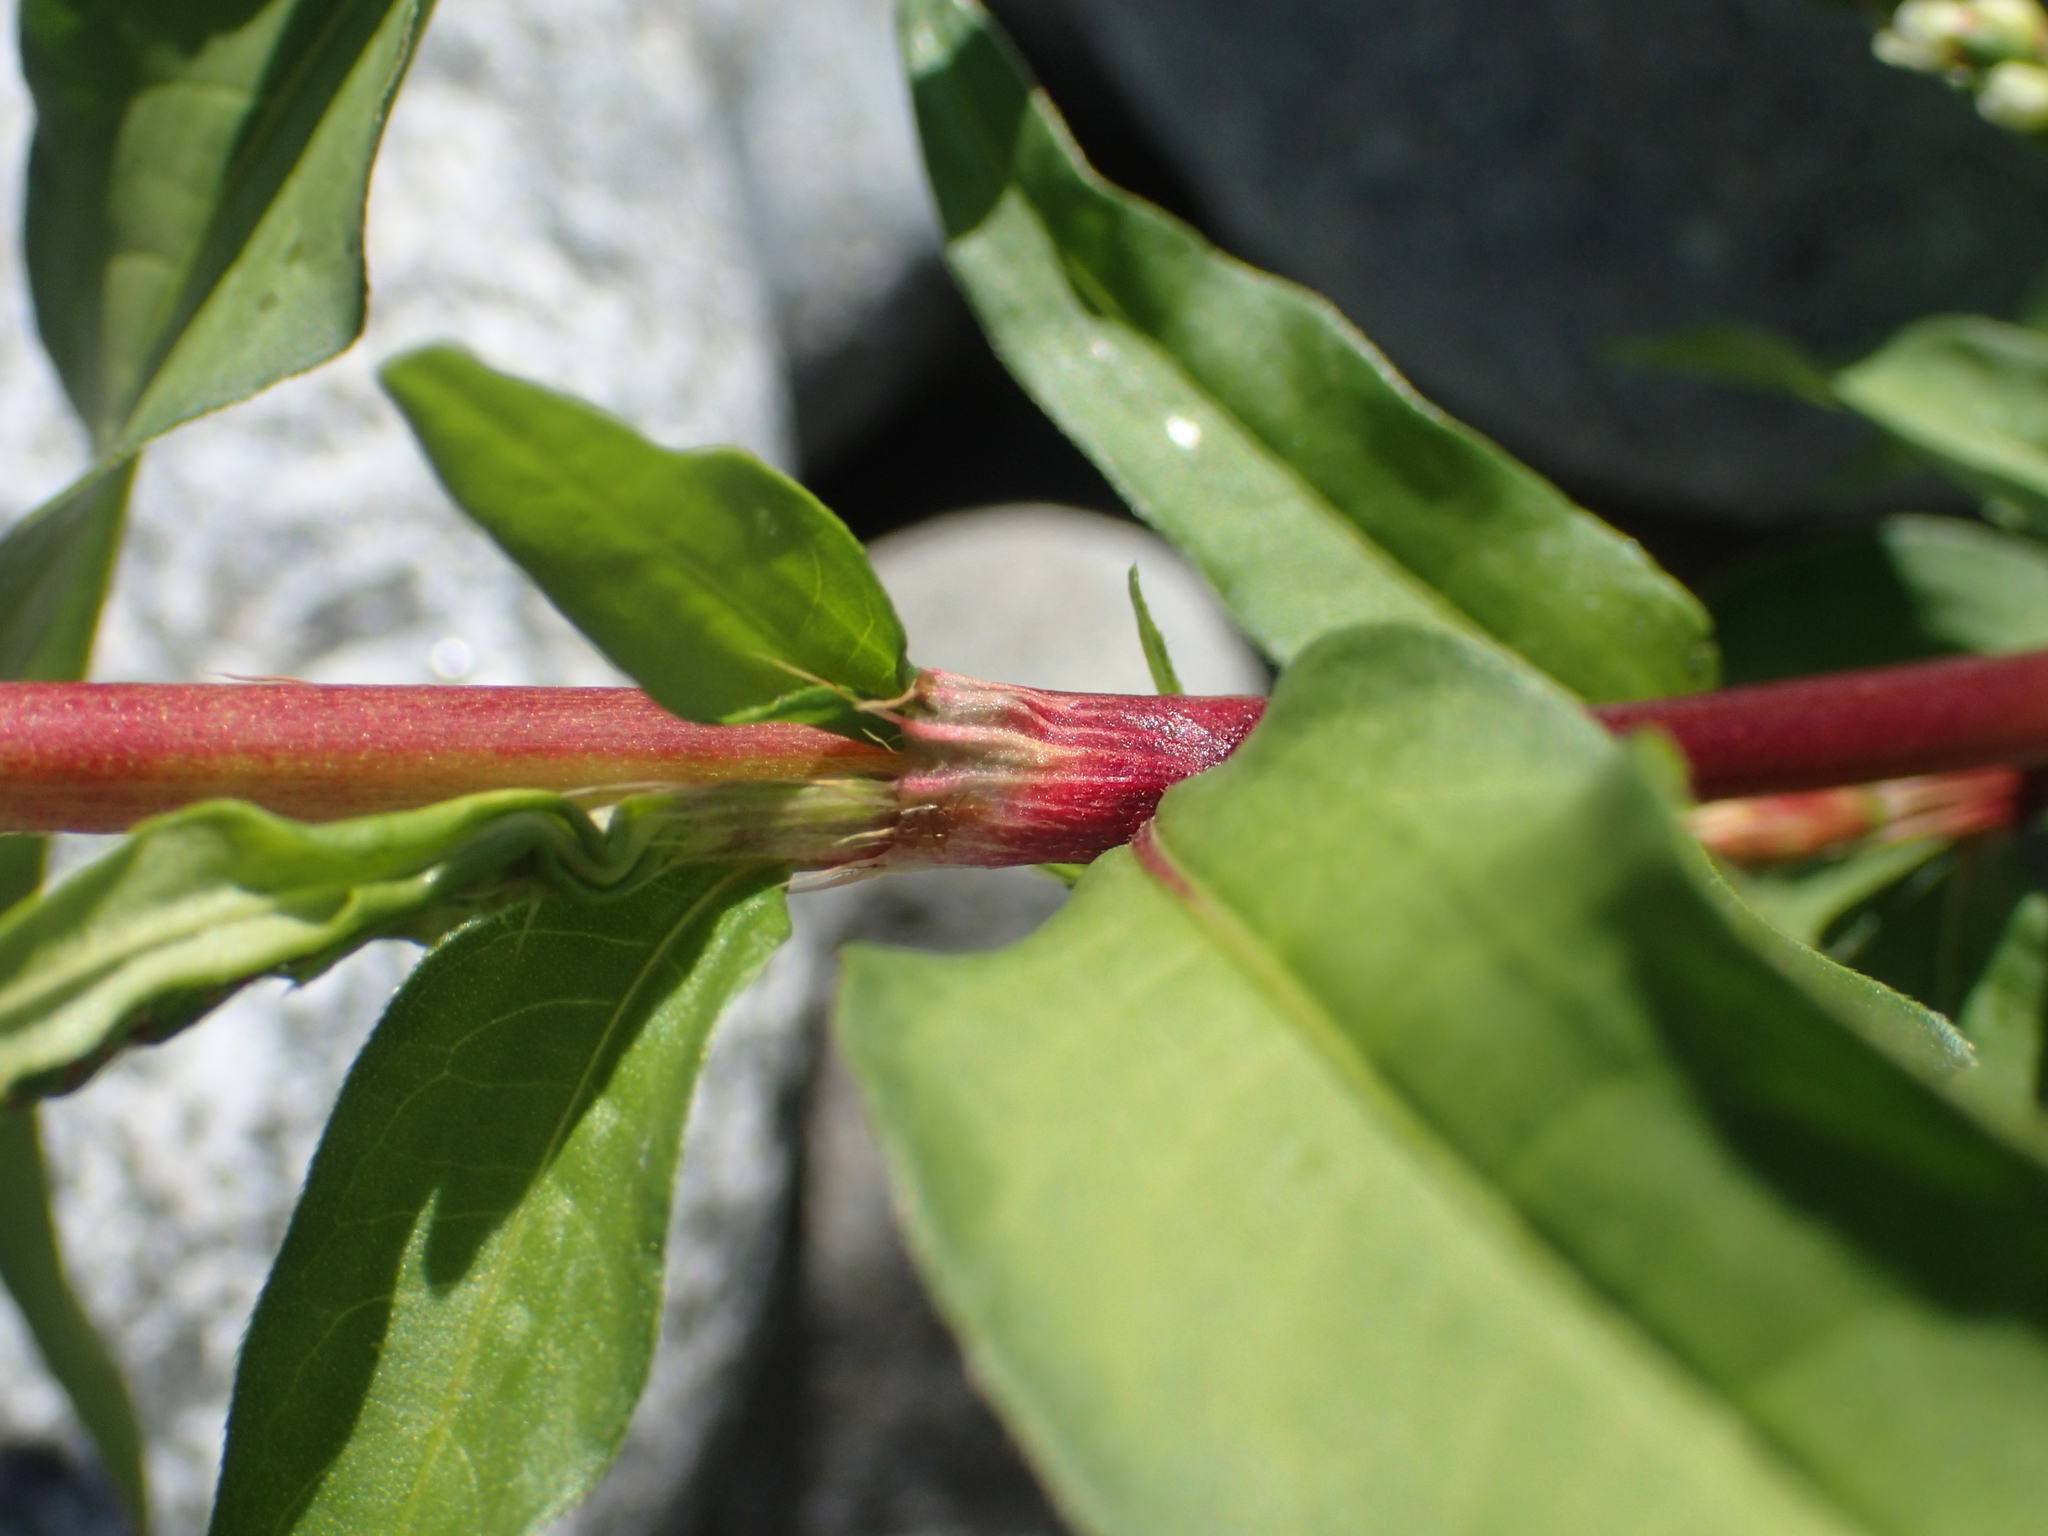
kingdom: Plantae
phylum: Tracheophyta
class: Magnoliopsida
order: Caryophyllales
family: Polygonaceae
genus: Persicaria
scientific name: Persicaria hydropiper
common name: Water-pepper
